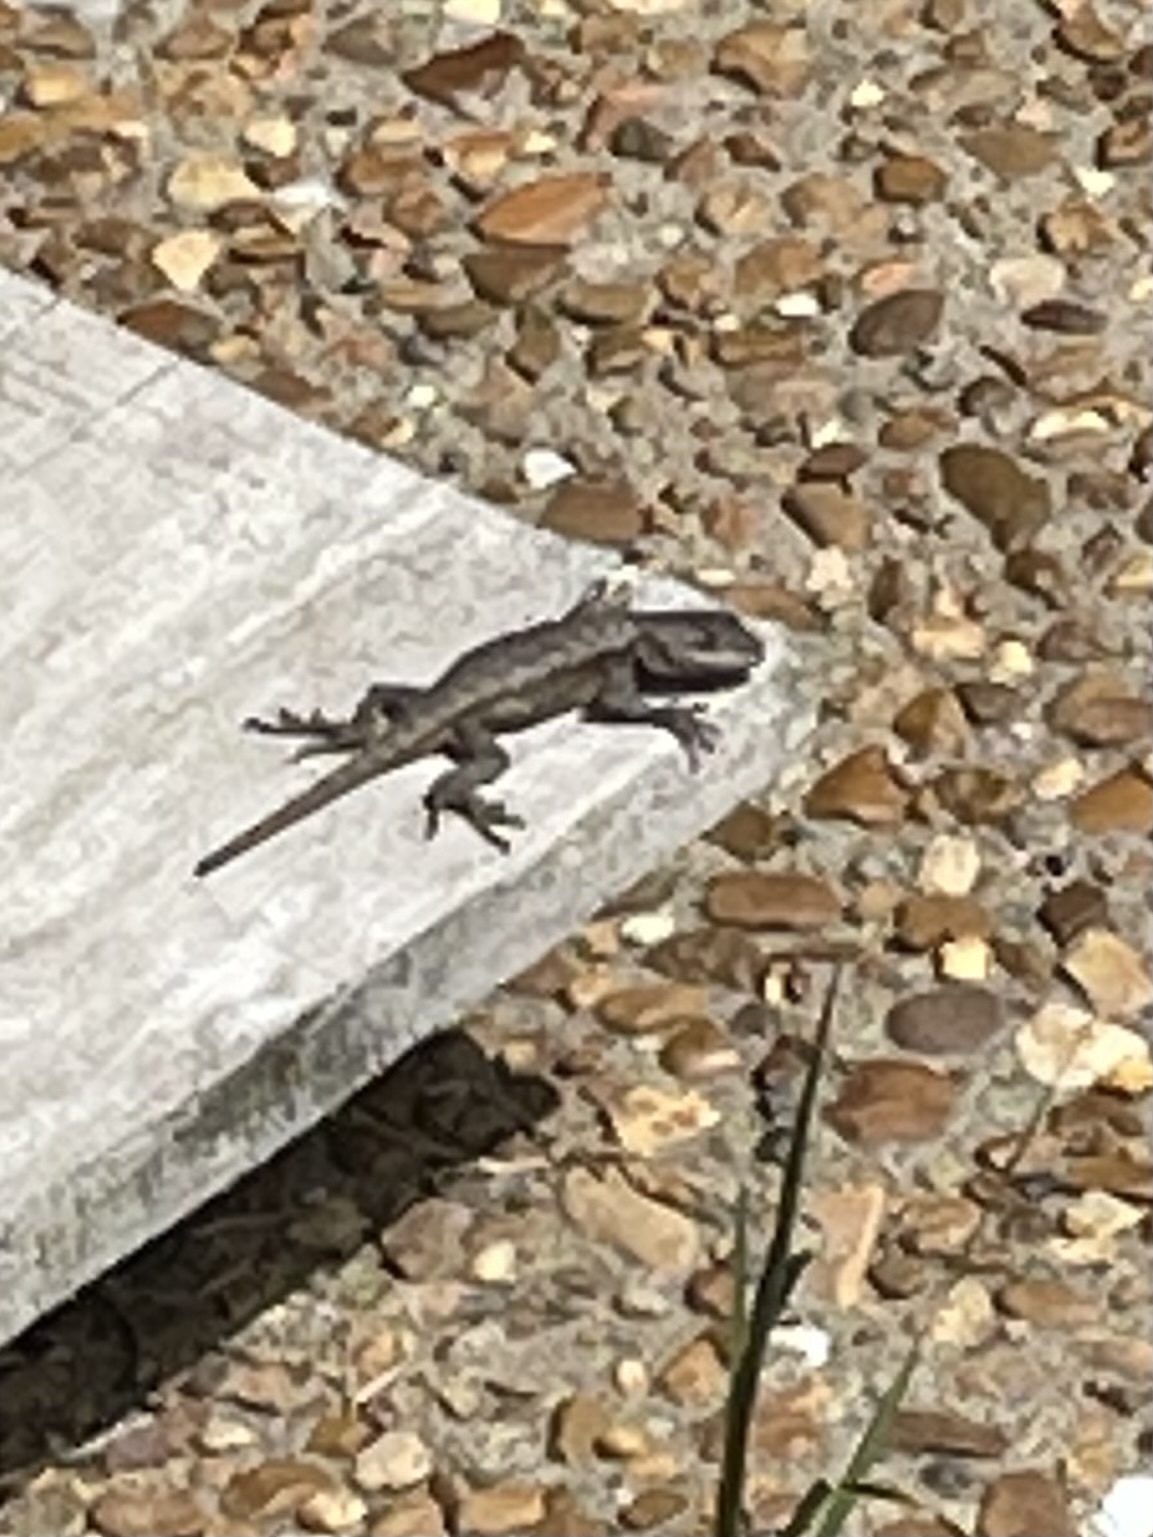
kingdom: Animalia
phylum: Chordata
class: Squamata
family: Phrynosomatidae
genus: Sceloporus
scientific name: Sceloporus undulatus
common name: Eastern fence lizard
